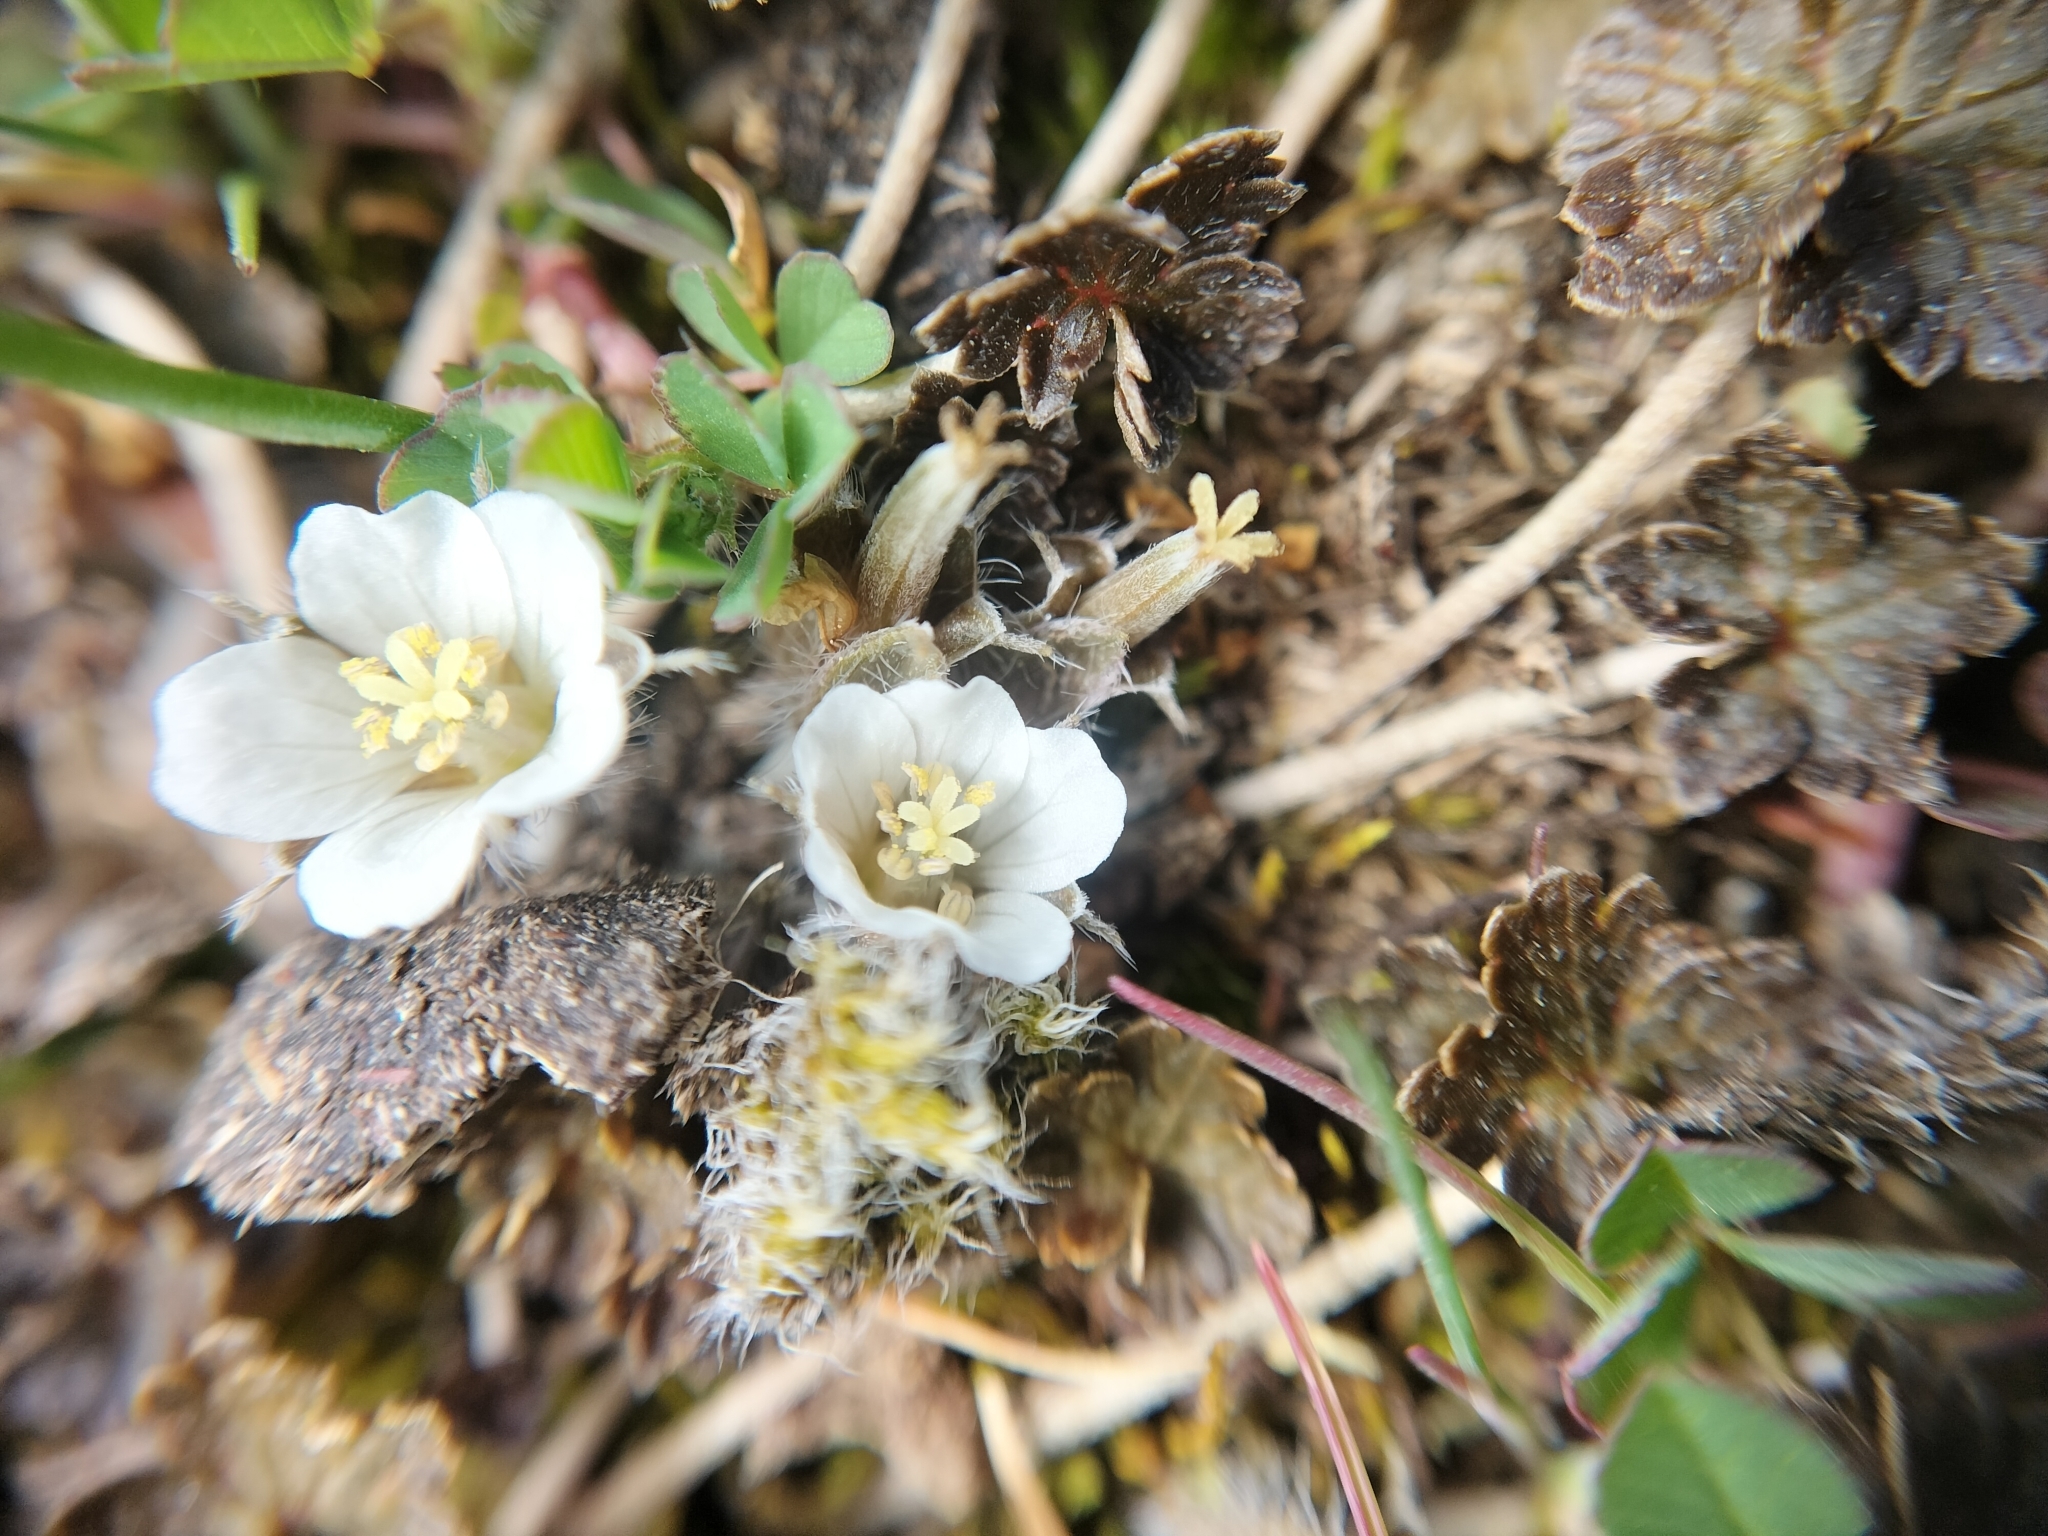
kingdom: Plantae
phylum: Tracheophyta
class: Magnoliopsida
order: Geraniales
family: Geraniaceae
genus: Geranium
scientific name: Geranium brevicaule
